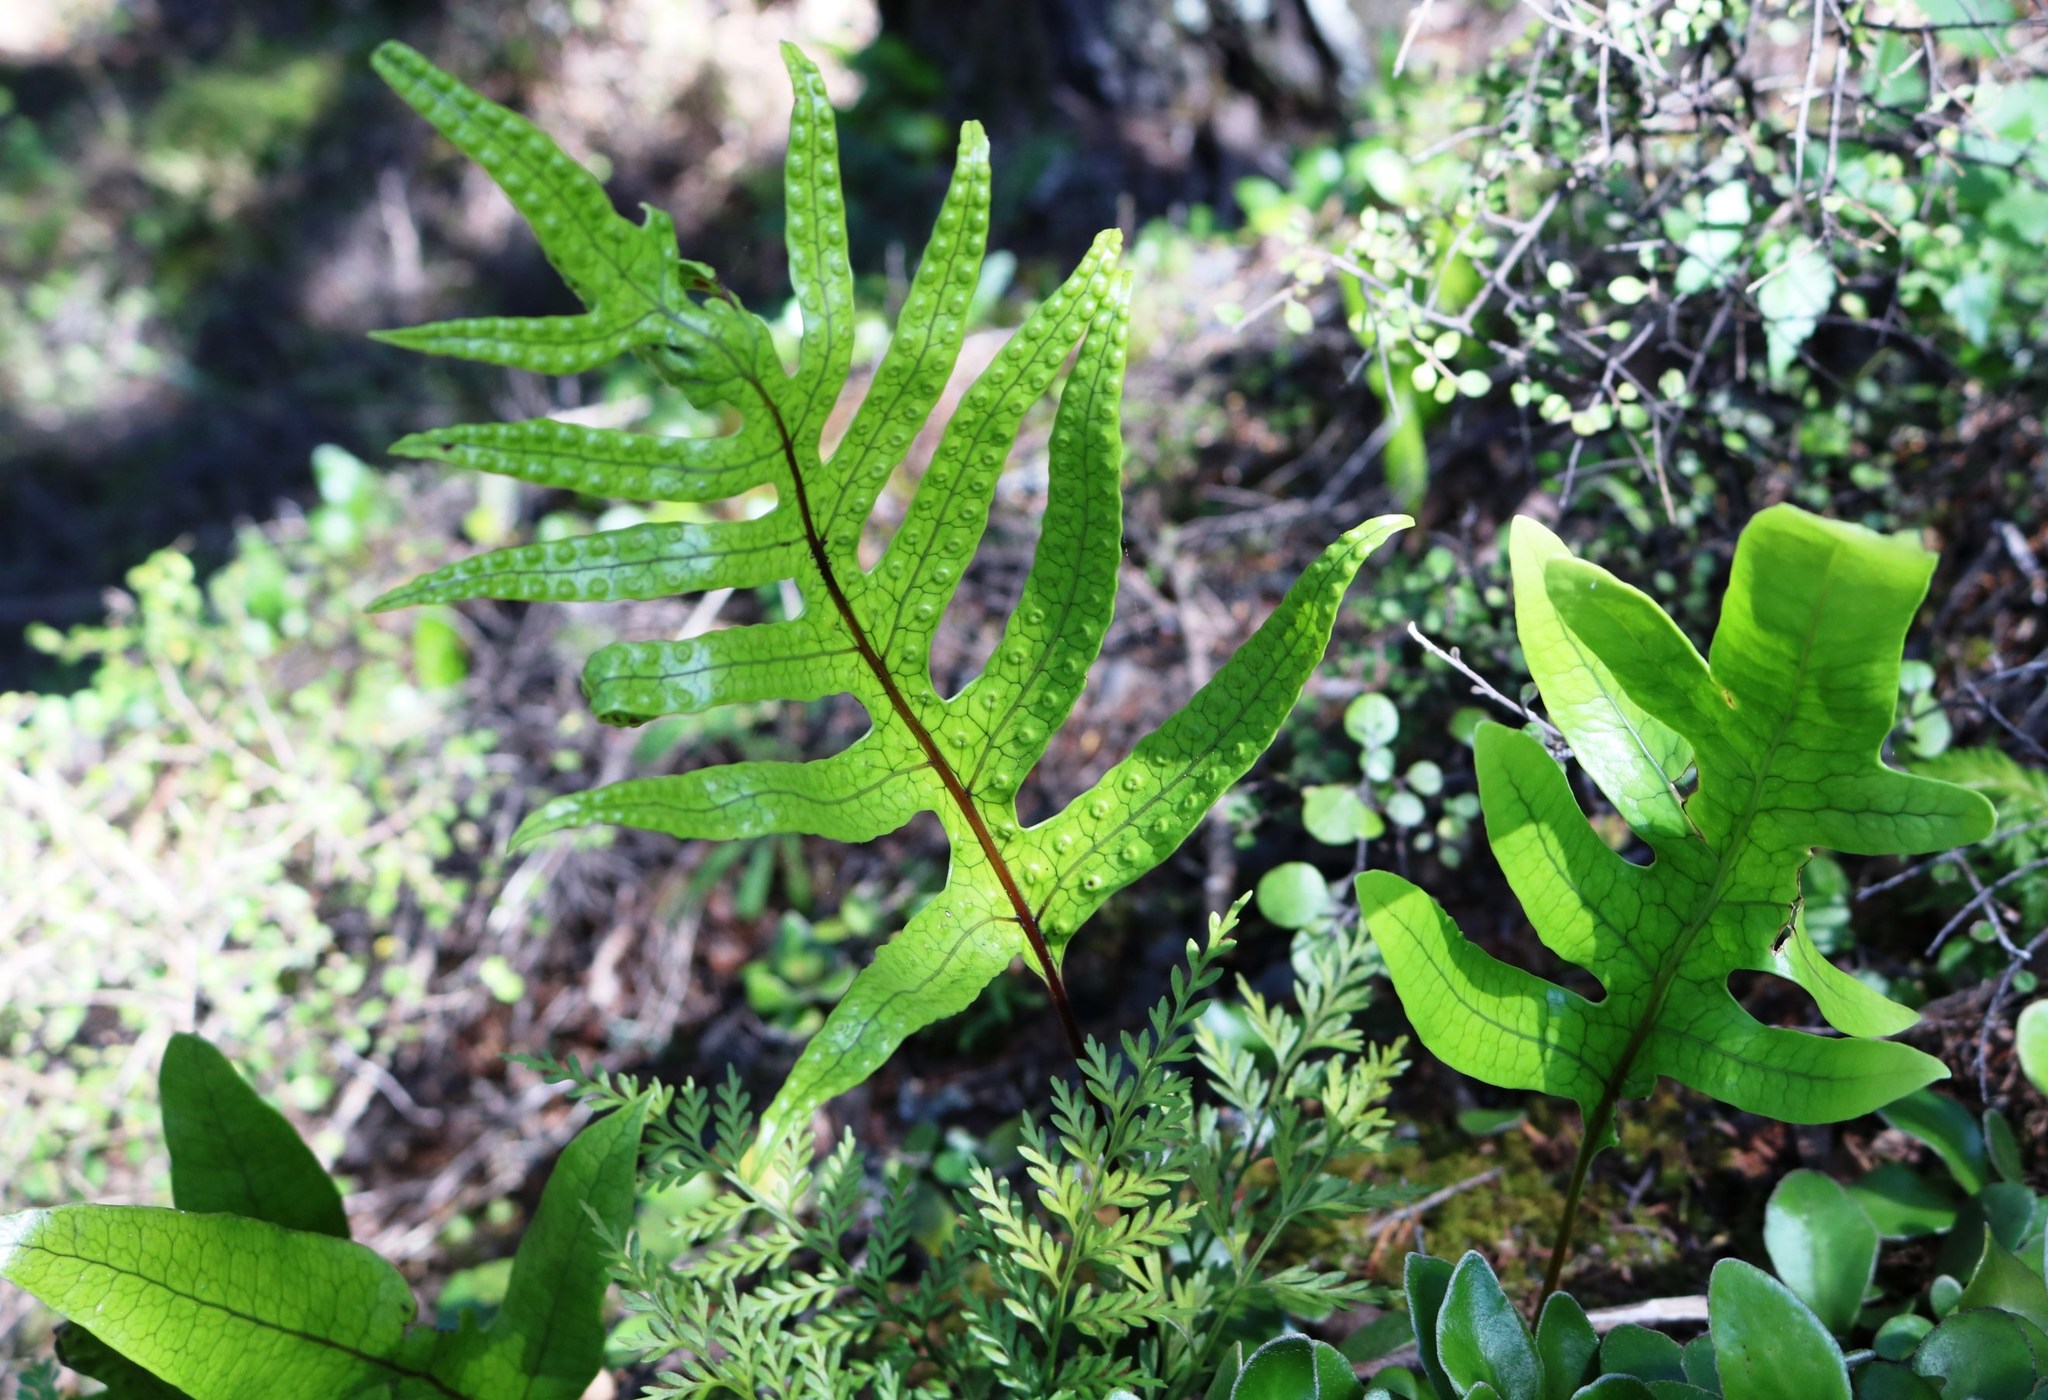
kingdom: Plantae
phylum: Tracheophyta
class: Polypodiopsida
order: Polypodiales
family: Polypodiaceae
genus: Lecanopteris
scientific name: Lecanopteris pustulata
